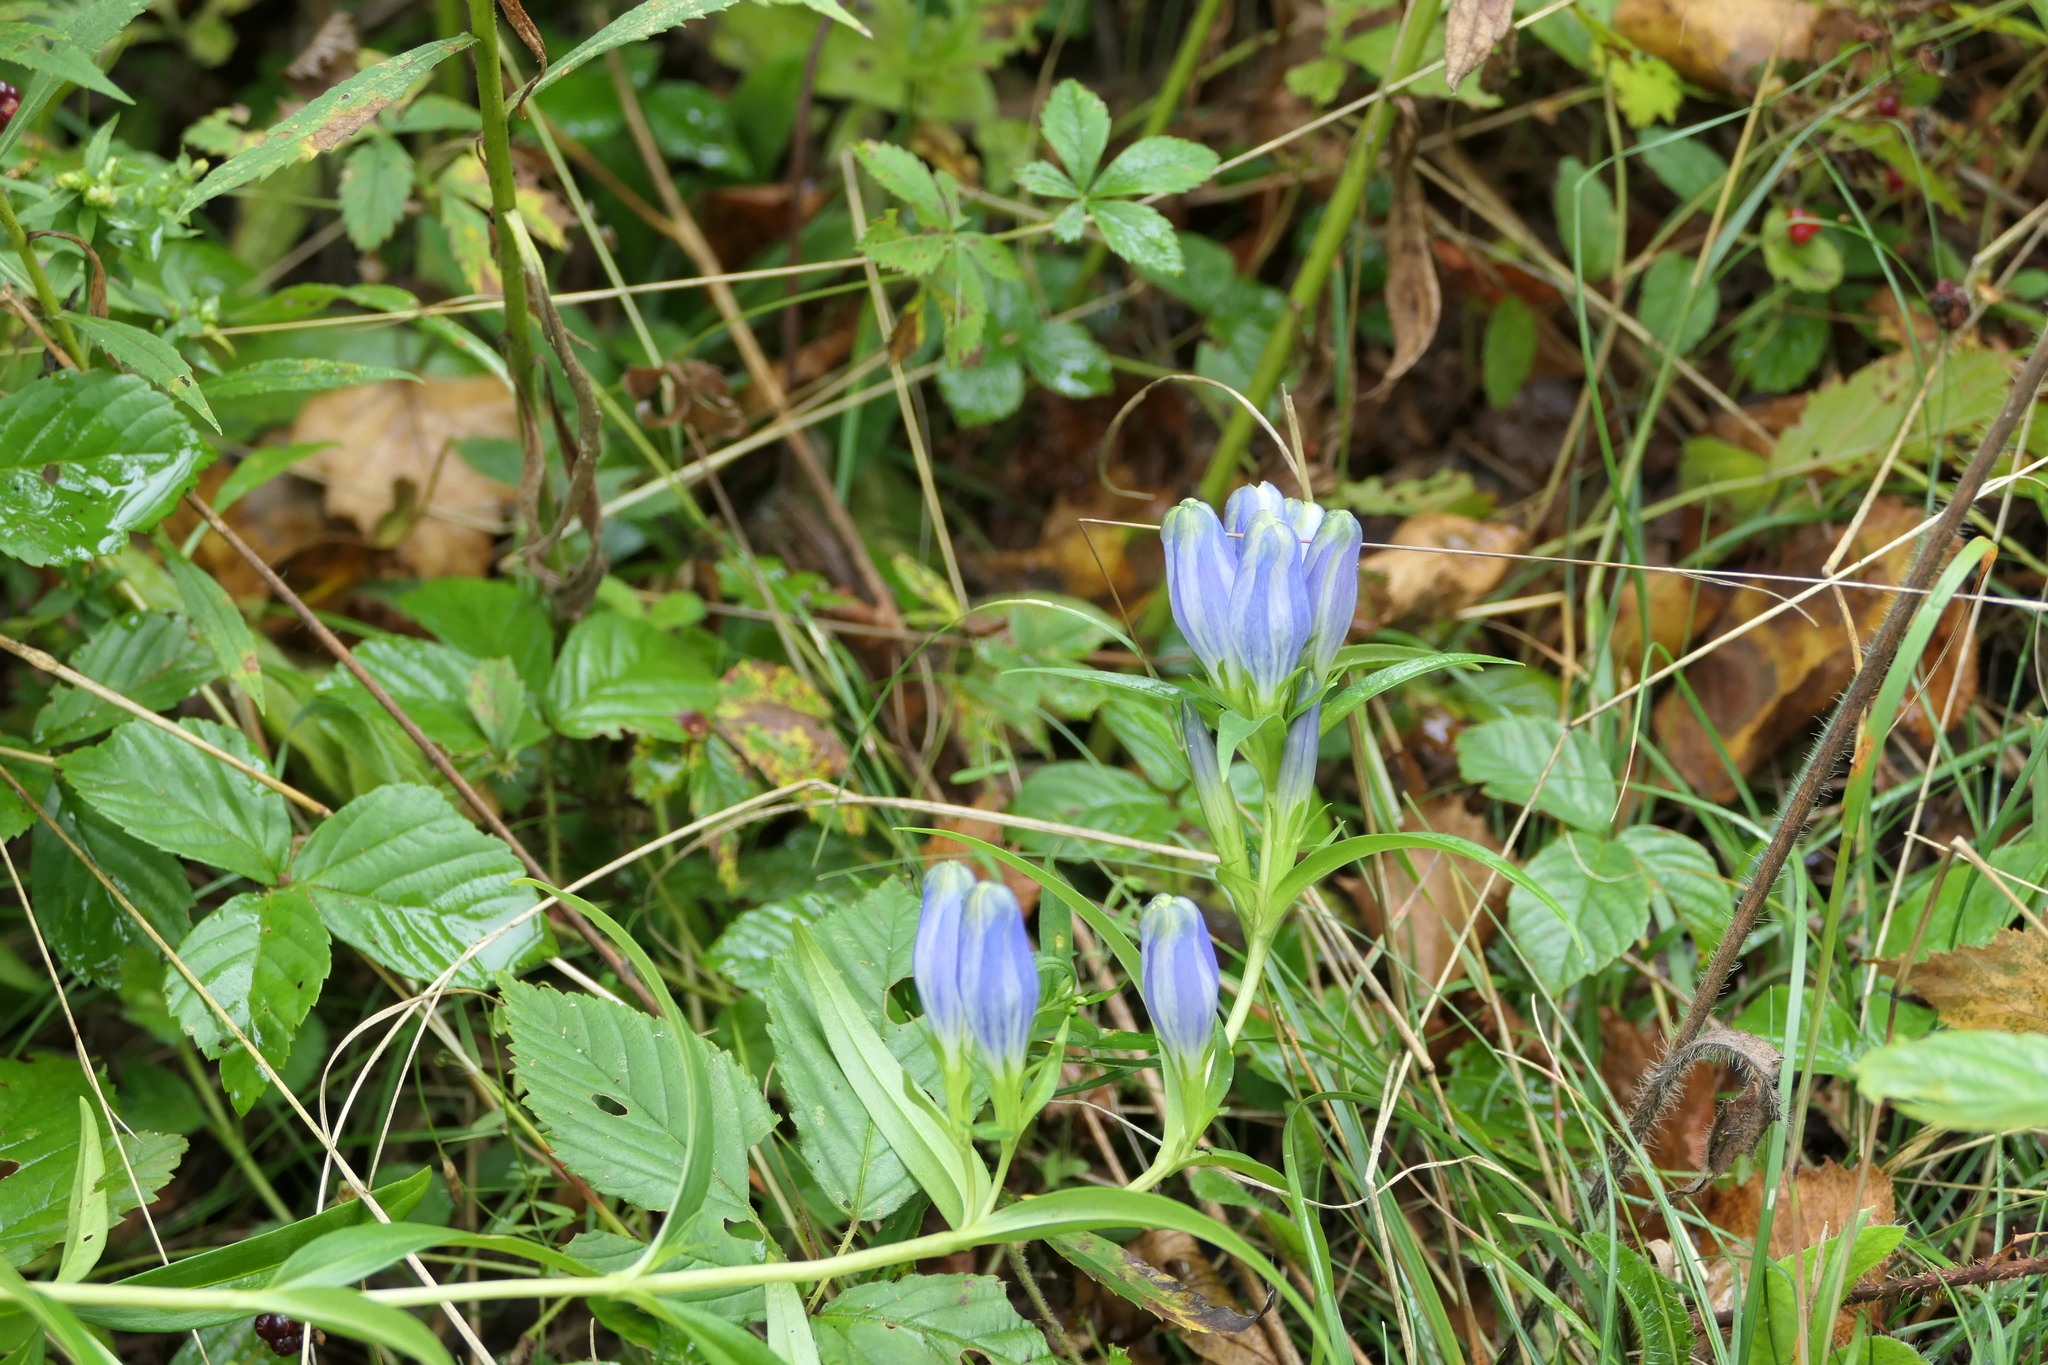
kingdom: Plantae
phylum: Tracheophyta
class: Magnoliopsida
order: Gentianales
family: Gentianaceae
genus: Gentiana
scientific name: Gentiana linearis
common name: Bastard gentian
